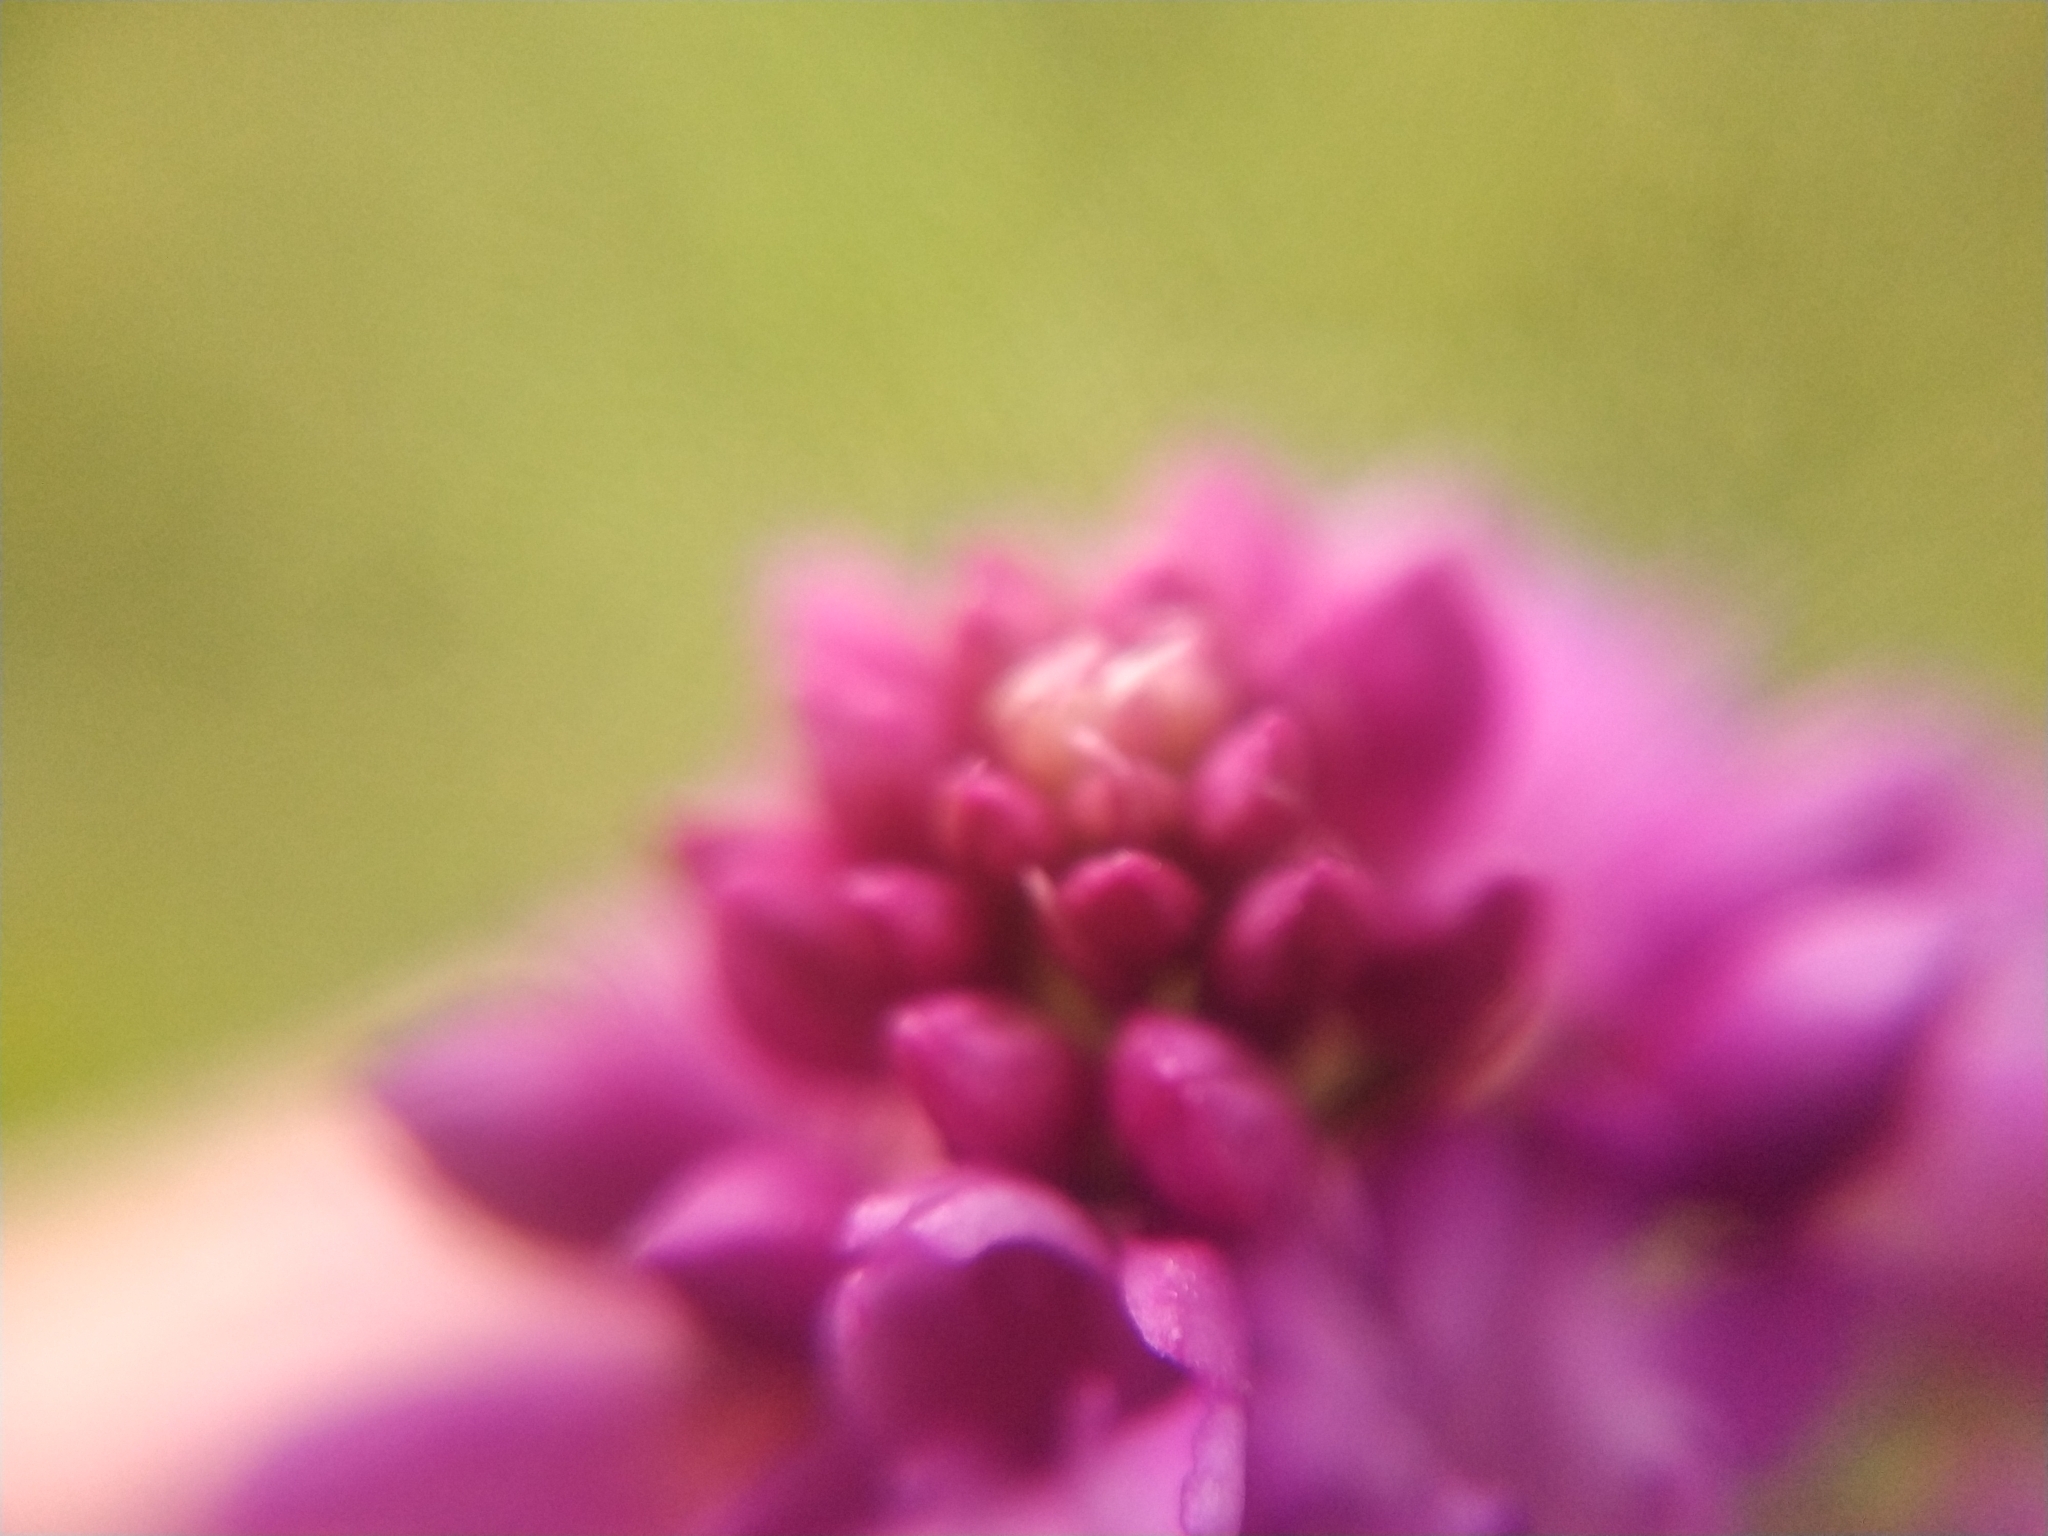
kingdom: Plantae
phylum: Tracheophyta
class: Liliopsida
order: Asparagales
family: Orchidaceae
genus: Anacamptis
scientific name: Anacamptis pyramidalis
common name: Pyramidal orchid
